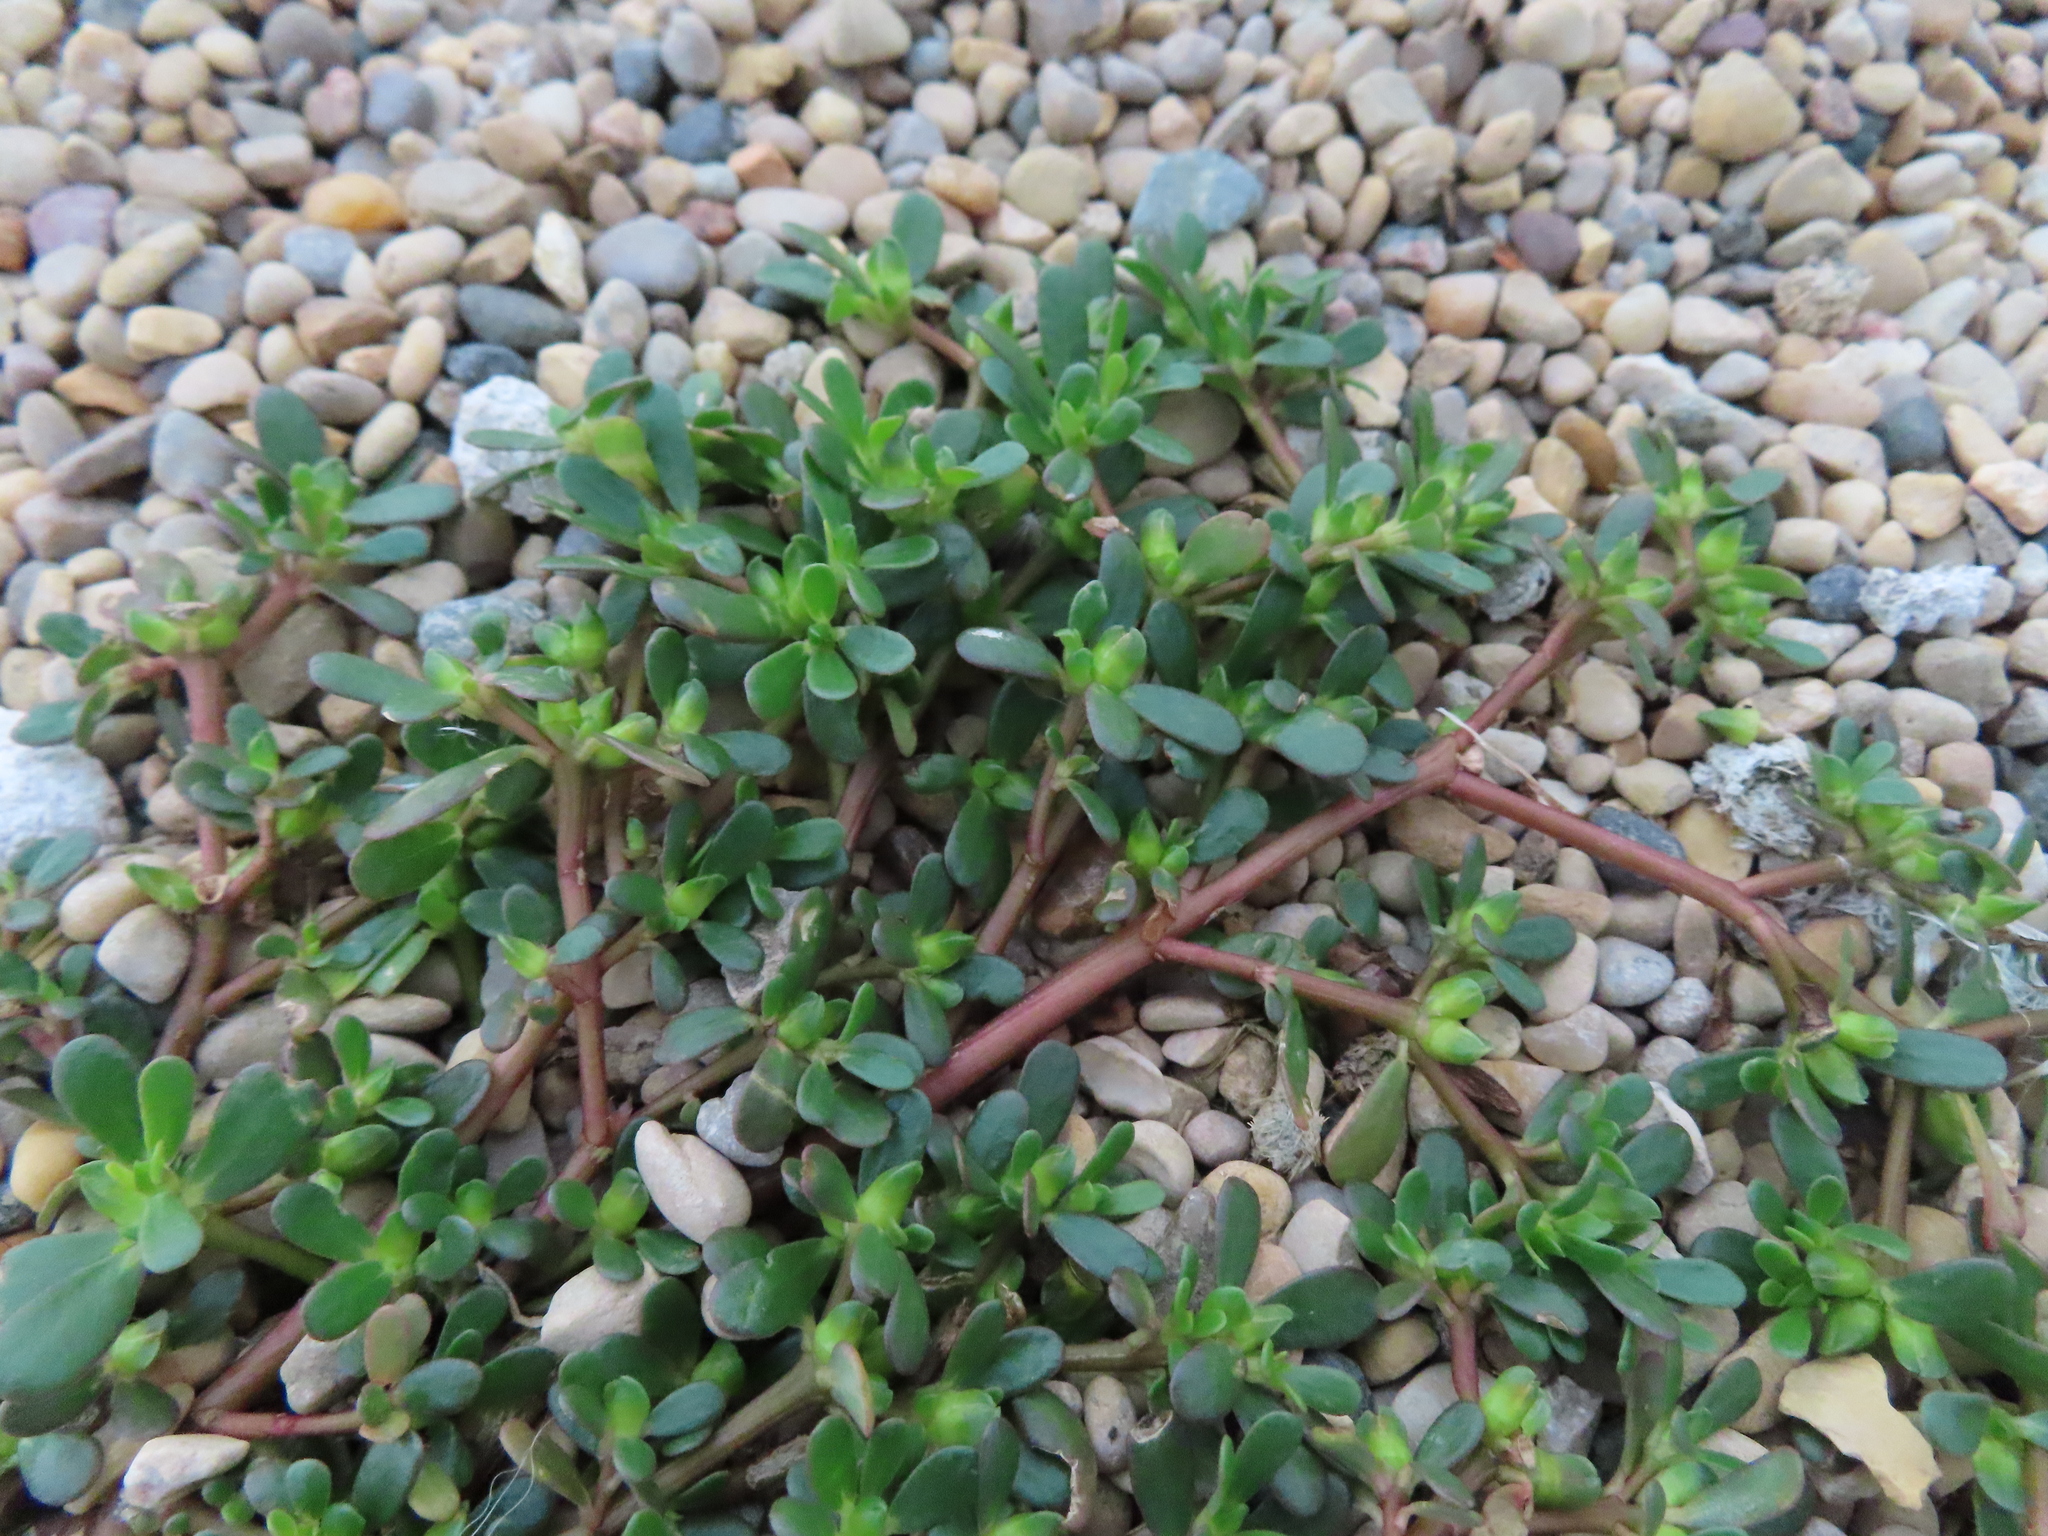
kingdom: Plantae
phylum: Tracheophyta
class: Magnoliopsida
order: Caryophyllales
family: Portulacaceae
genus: Portulaca
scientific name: Portulaca oleracea
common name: Common purslane
